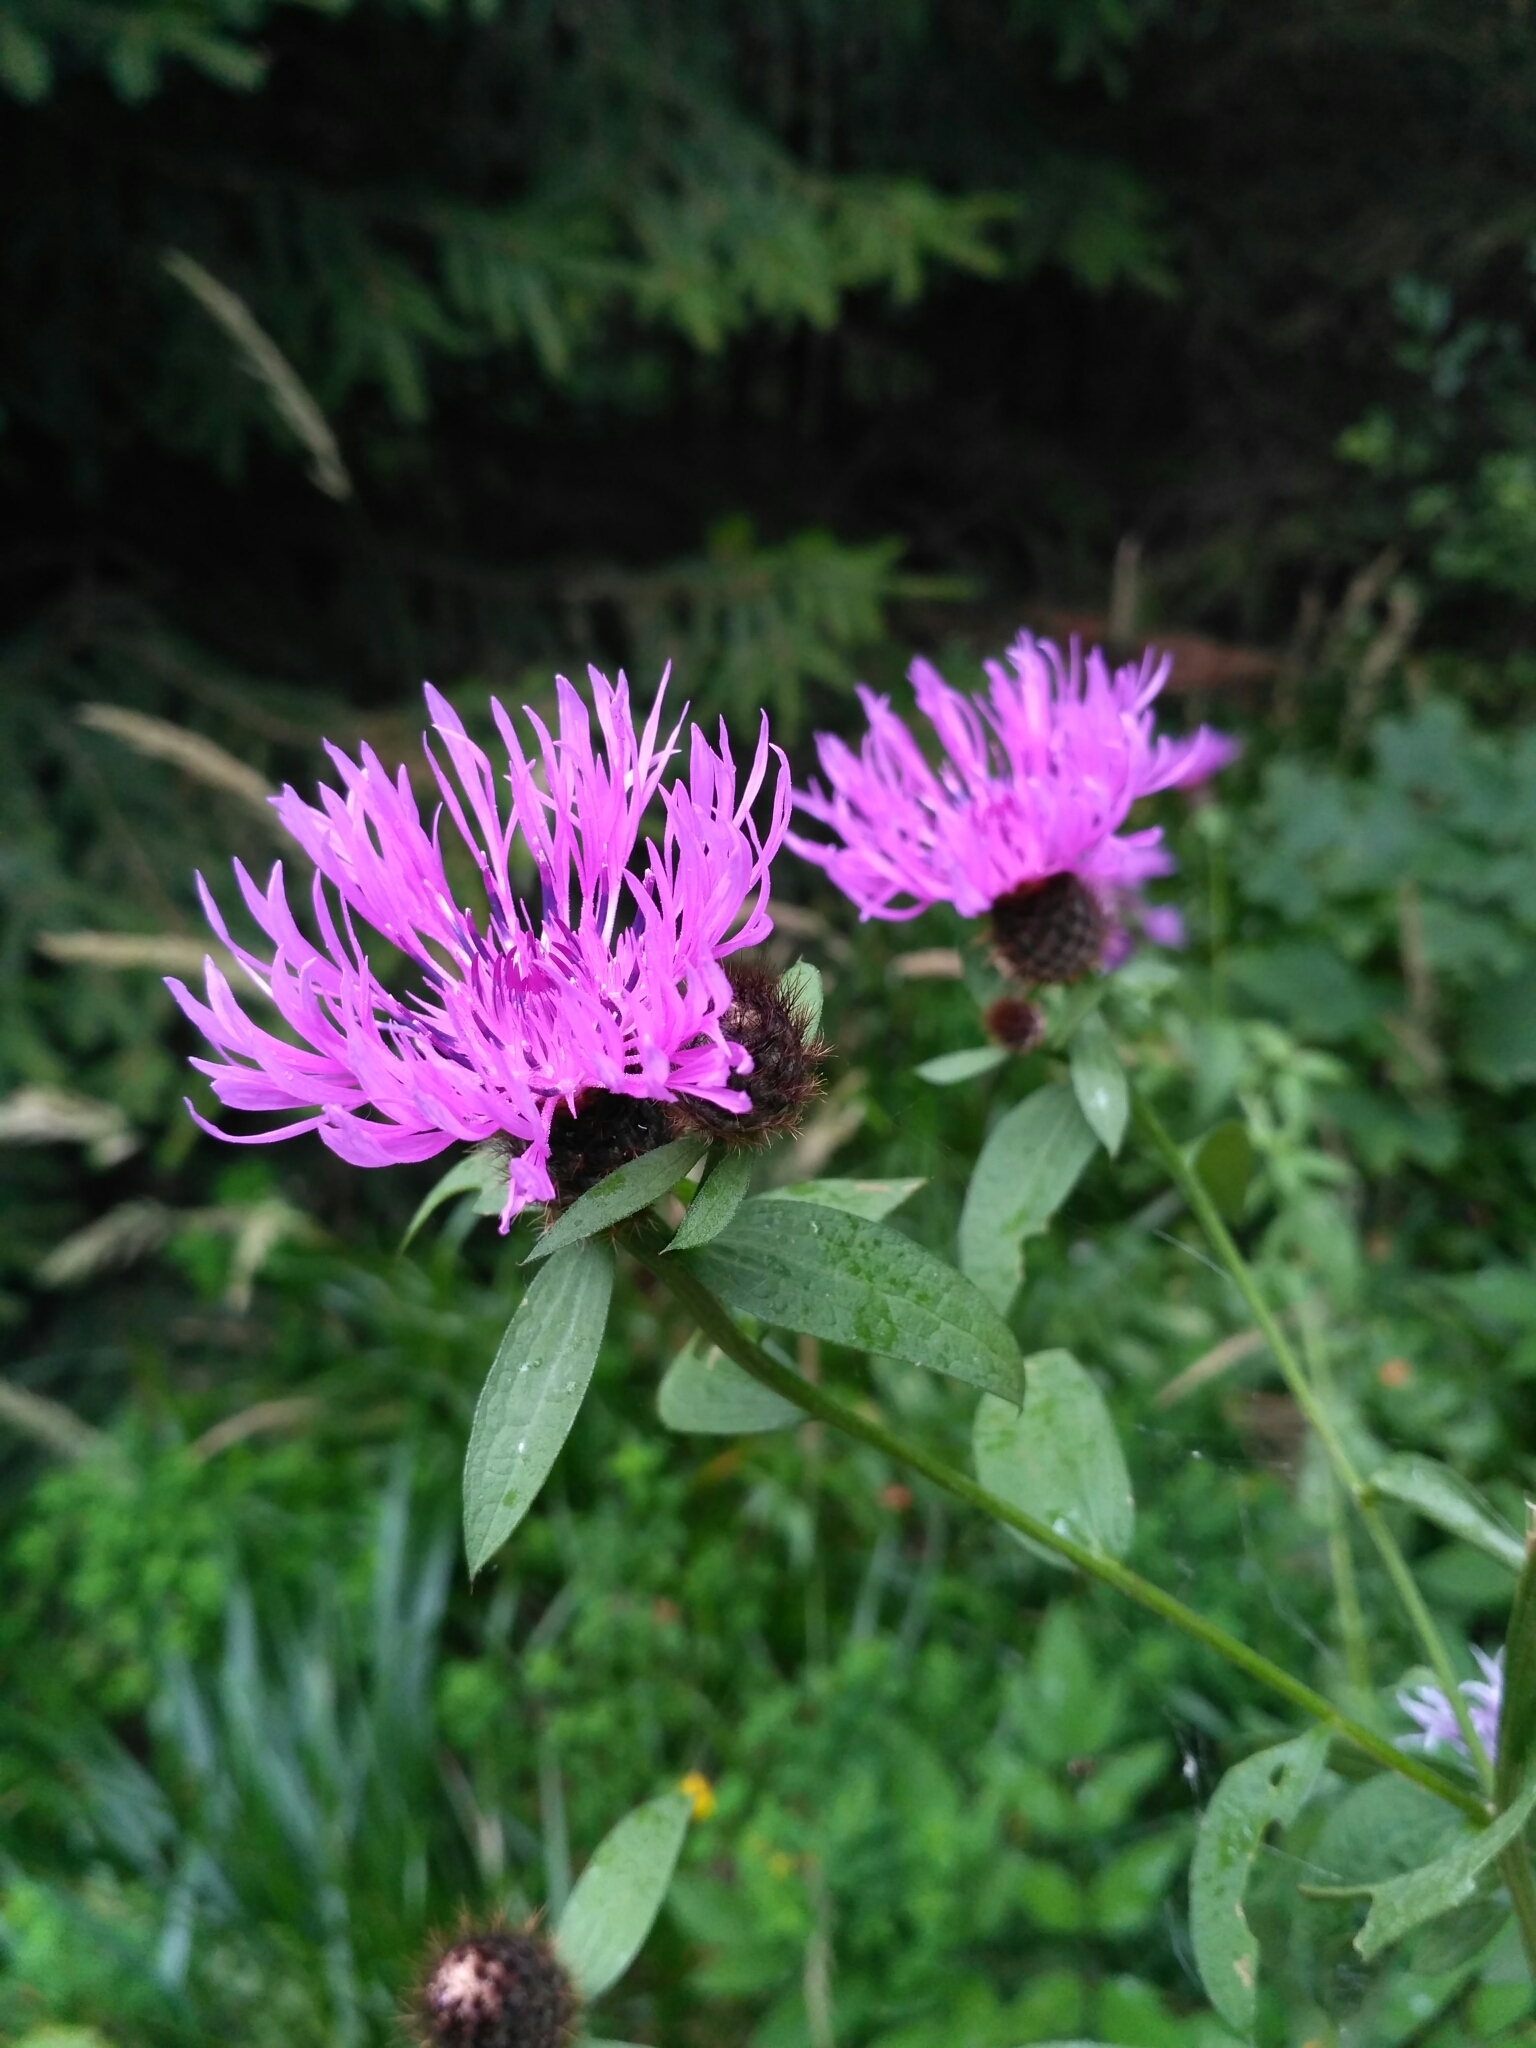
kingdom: Plantae
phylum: Tracheophyta
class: Magnoliopsida
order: Asterales
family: Asteraceae
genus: Centaurea
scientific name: Centaurea phrygia
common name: Wig knapweed
